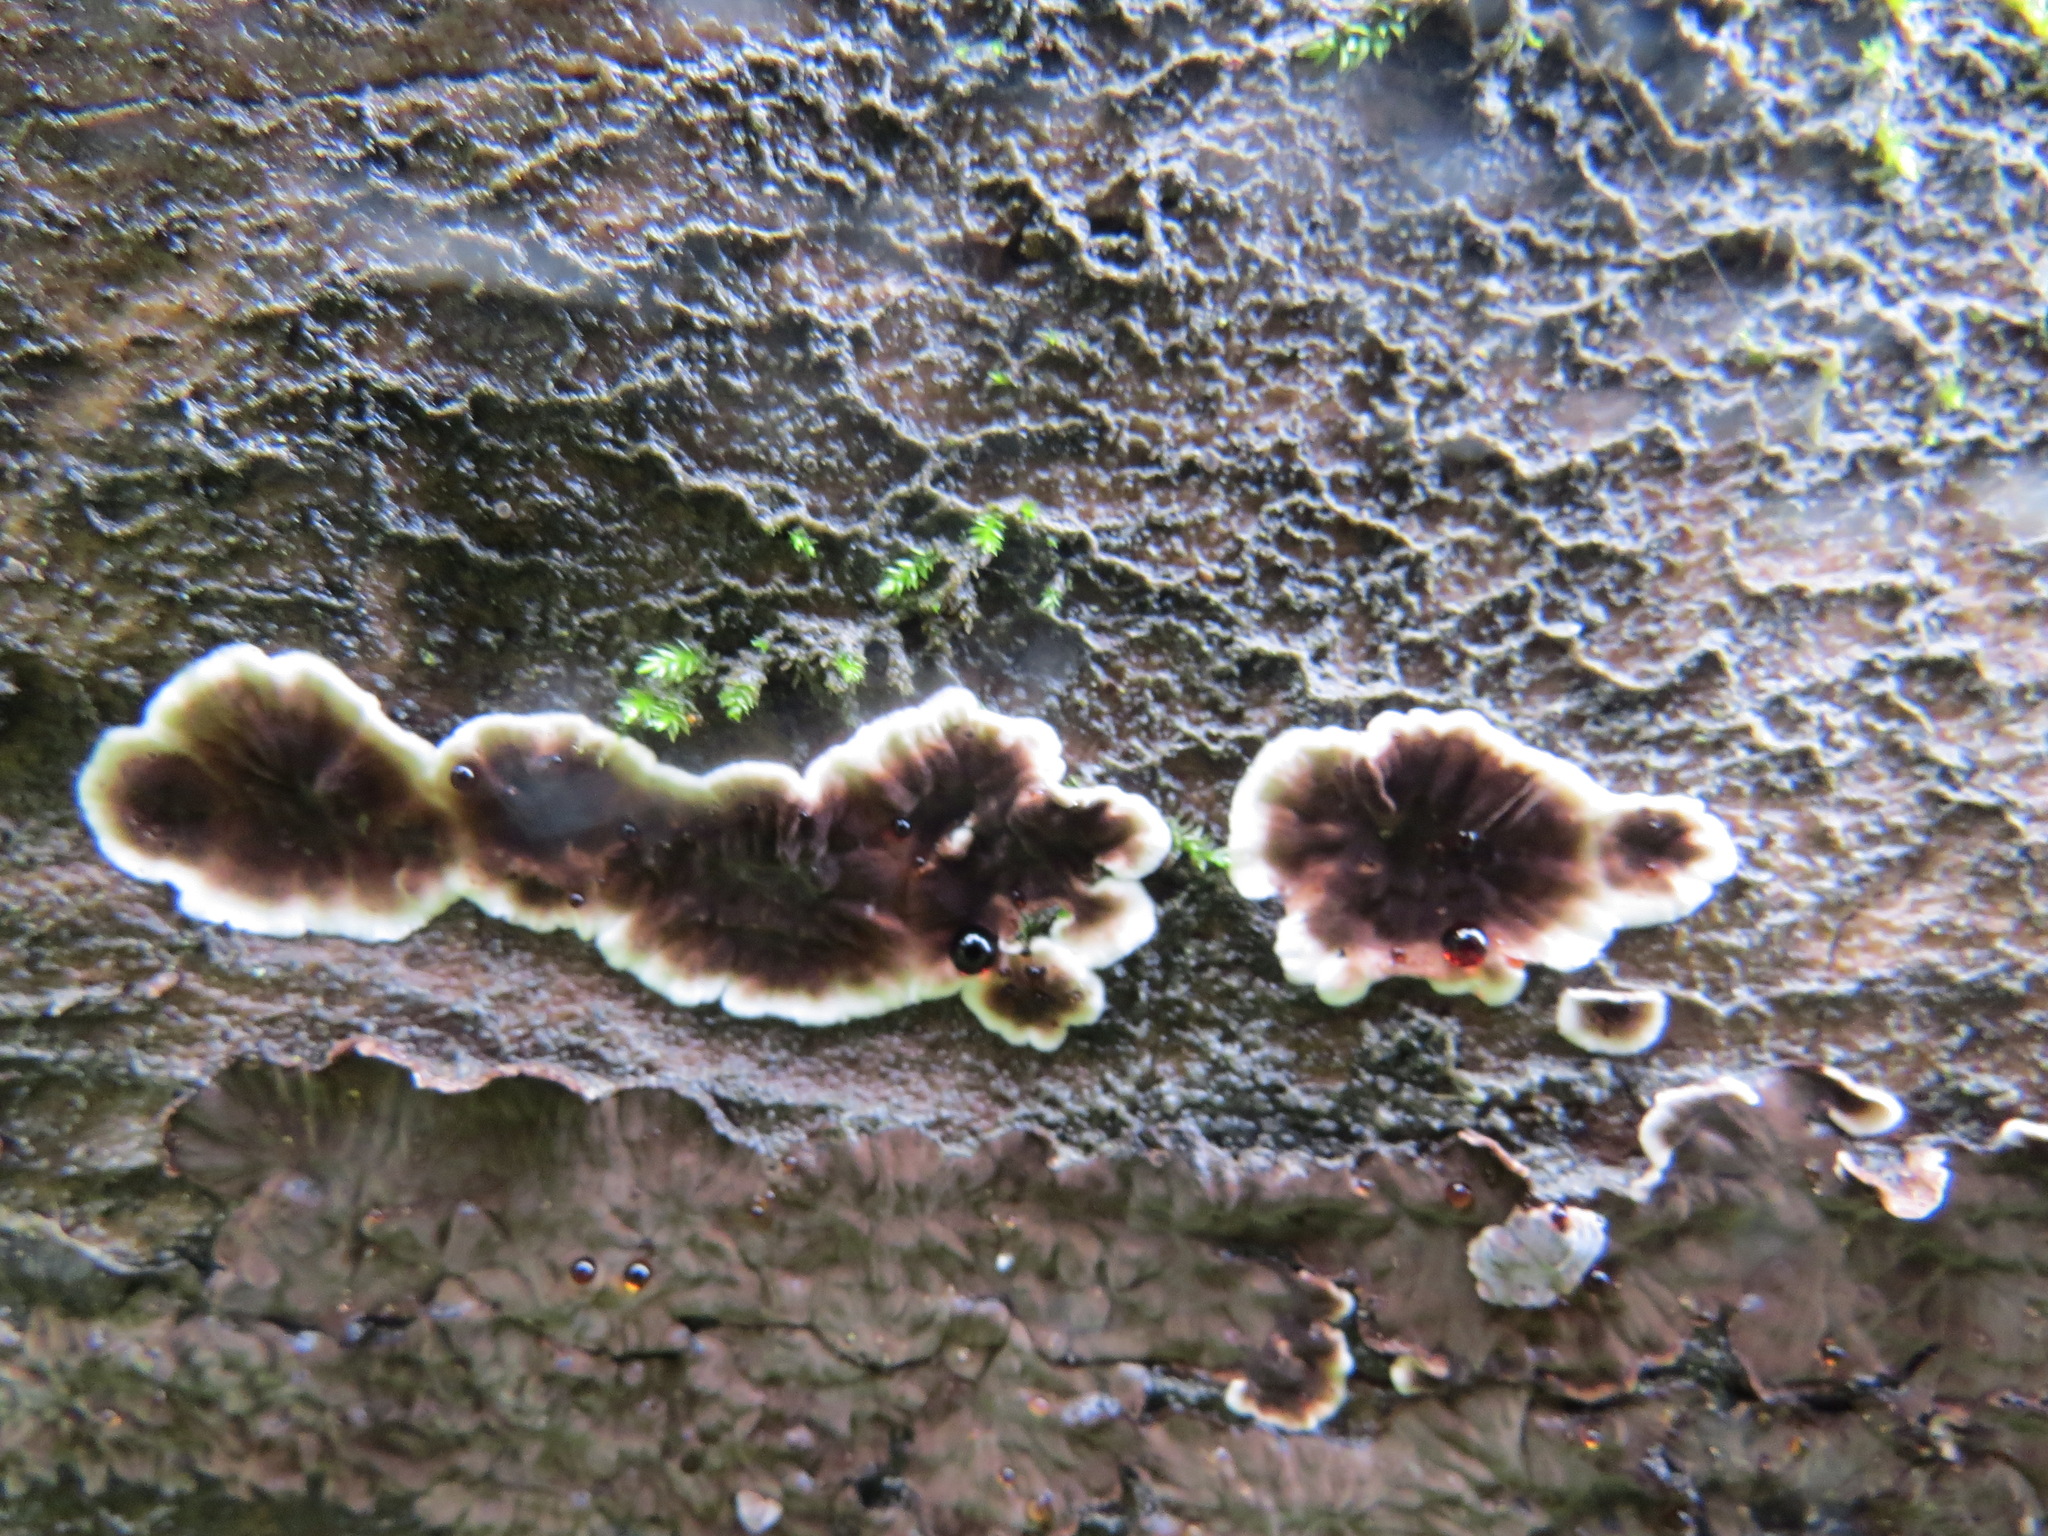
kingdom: Fungi
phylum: Basidiomycota
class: Agaricomycetes
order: Russulales
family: Peniophoraceae
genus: Peniophora
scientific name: Peniophora albobadia
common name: Giraffe spots
